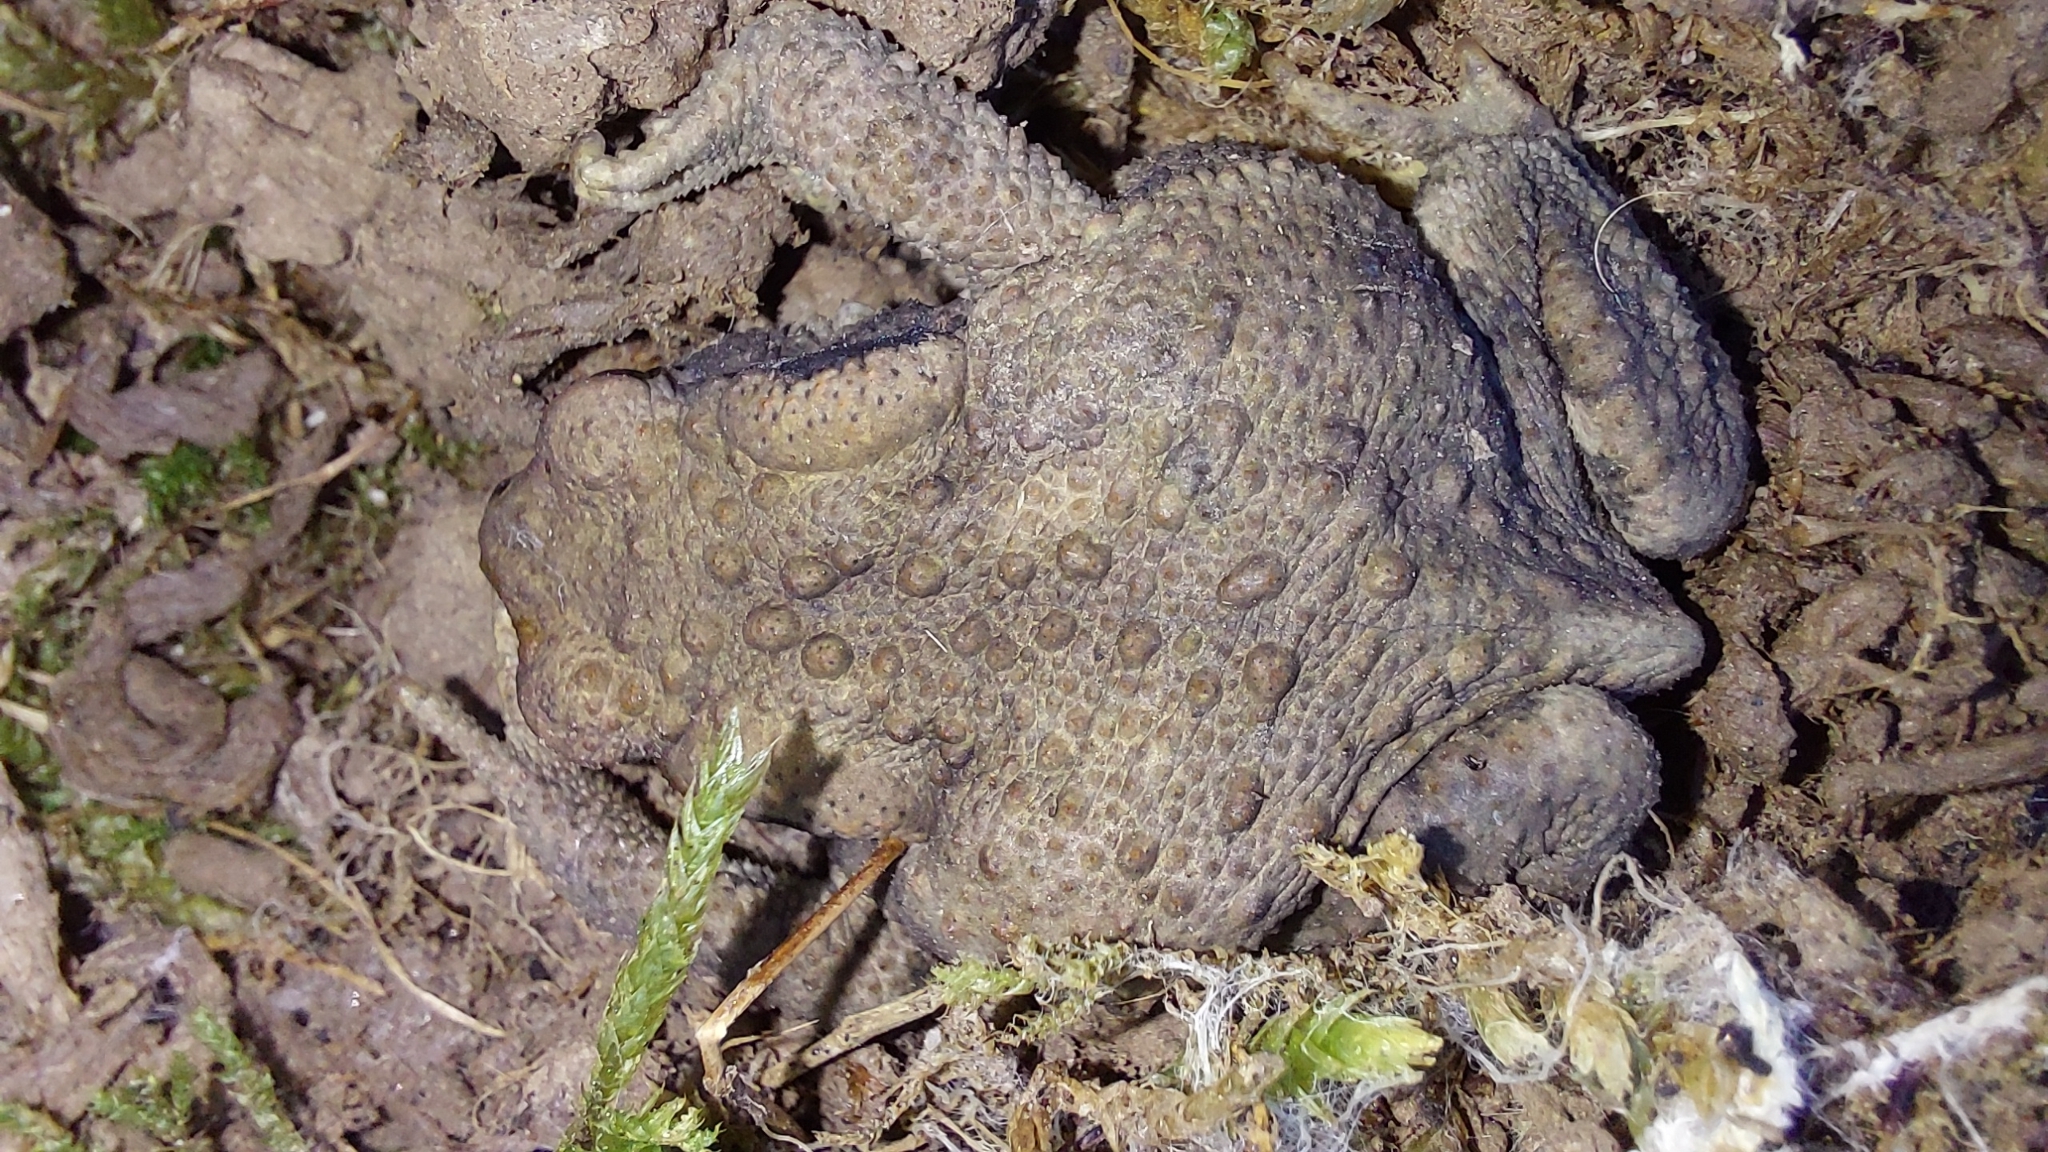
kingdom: Animalia
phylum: Chordata
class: Amphibia
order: Anura
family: Bufonidae
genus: Bufo
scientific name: Bufo spinosus
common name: Western common toad
